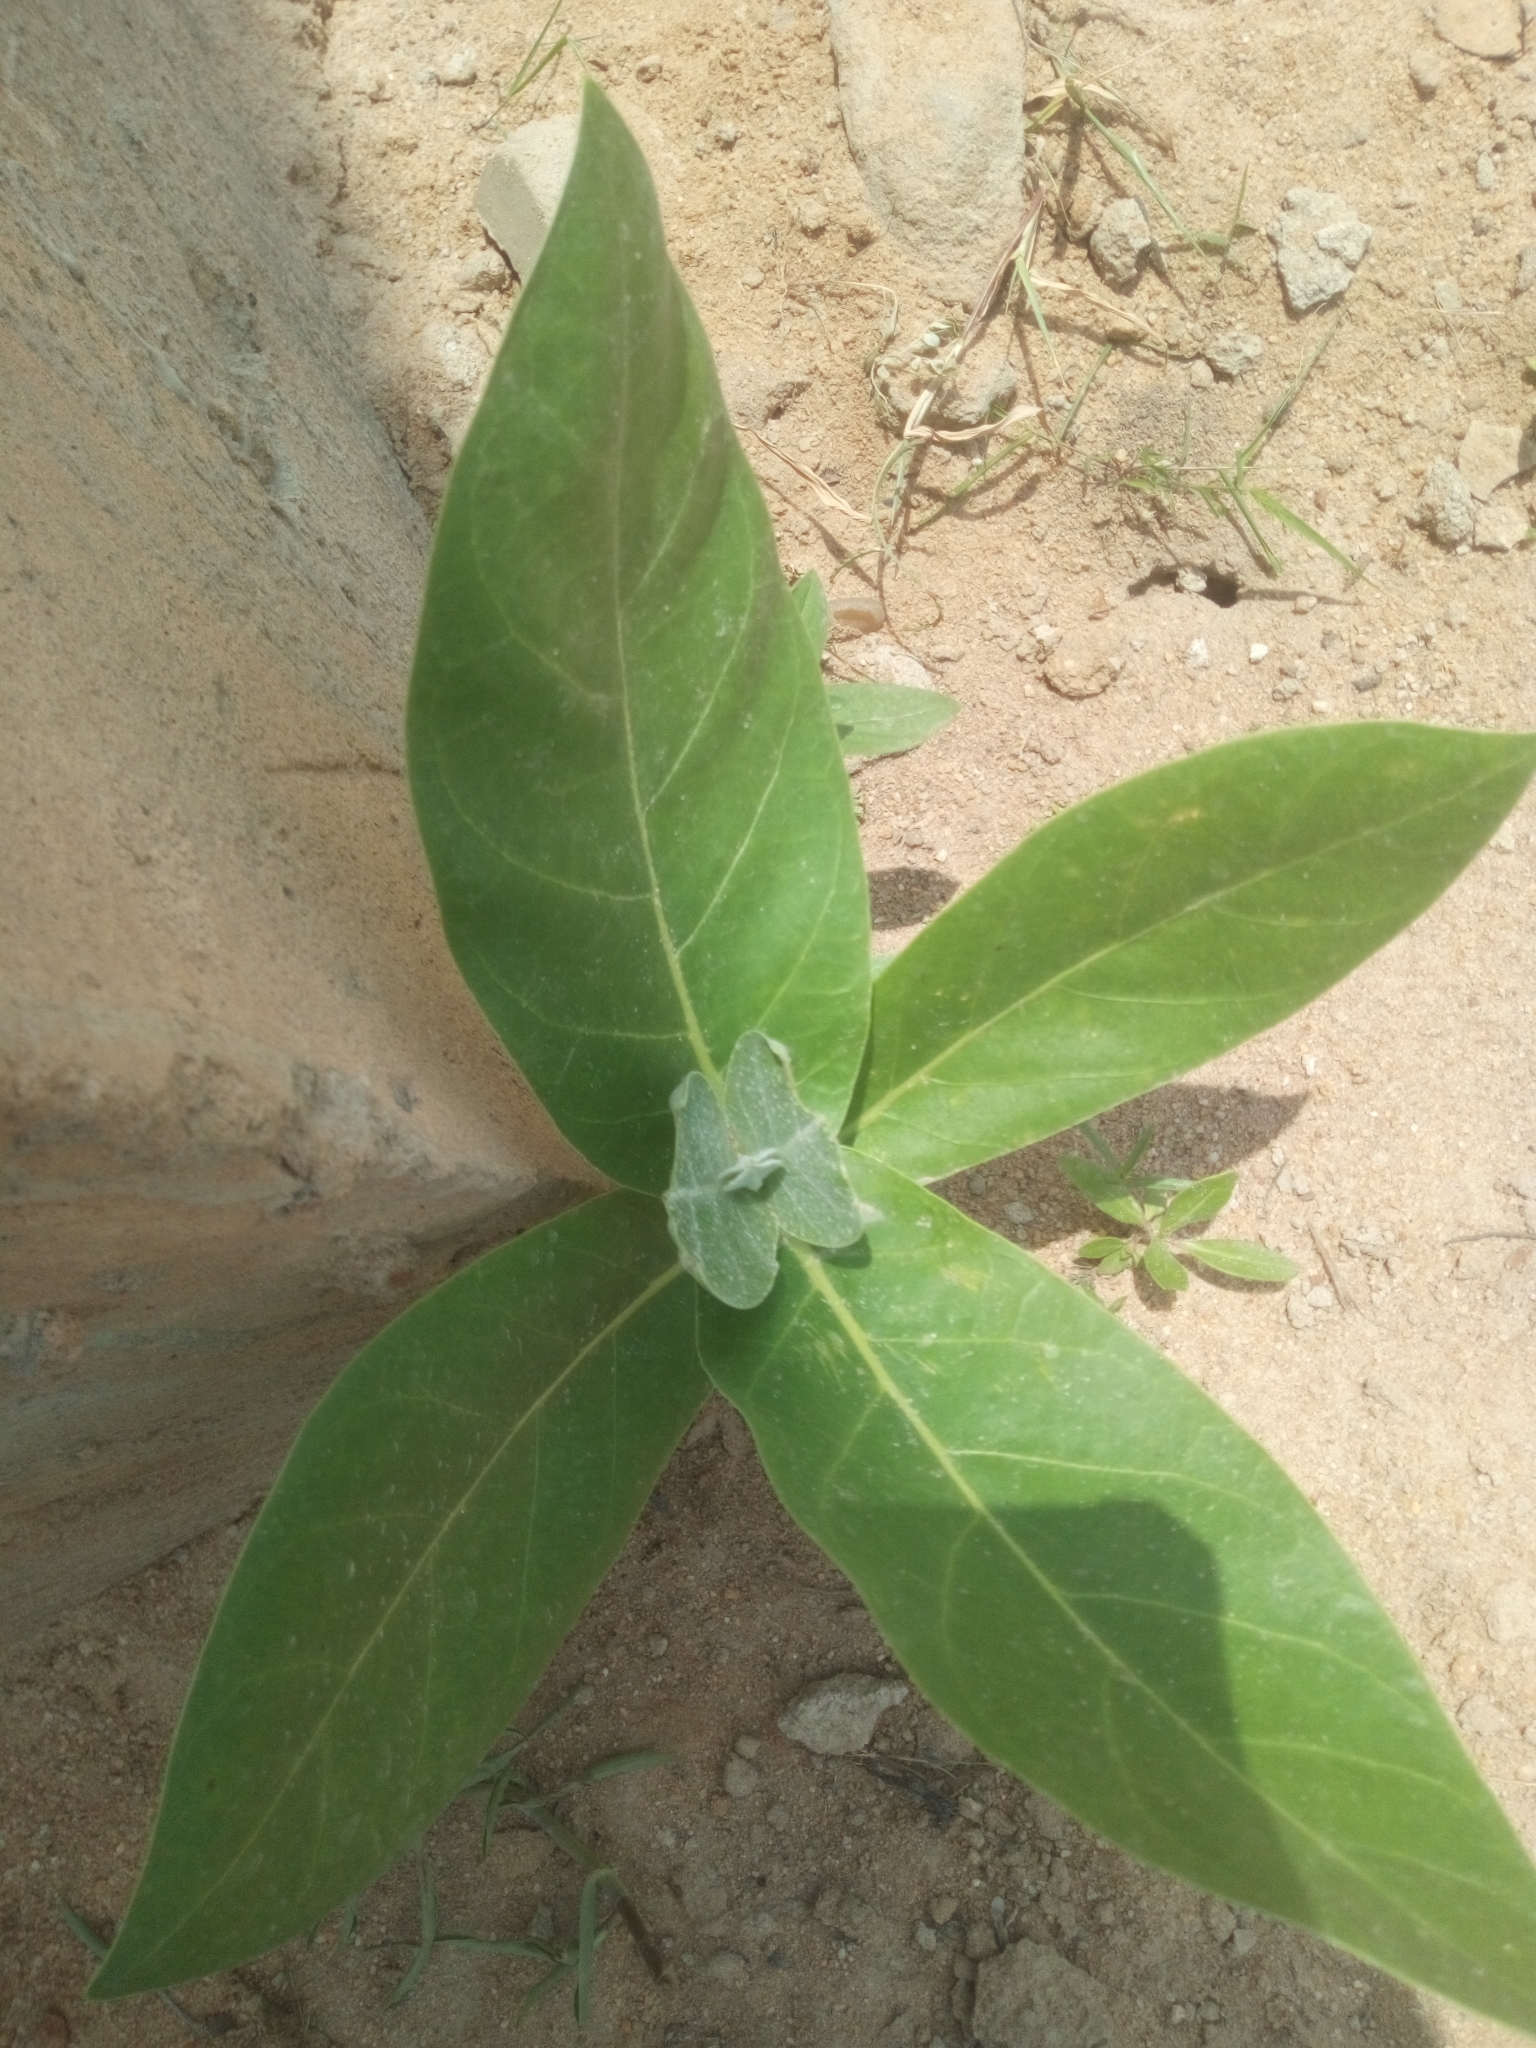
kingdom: Plantae
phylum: Tracheophyta
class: Magnoliopsida
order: Gentianales
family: Apocynaceae
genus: Calotropis
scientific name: Calotropis procera
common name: Roostertree
